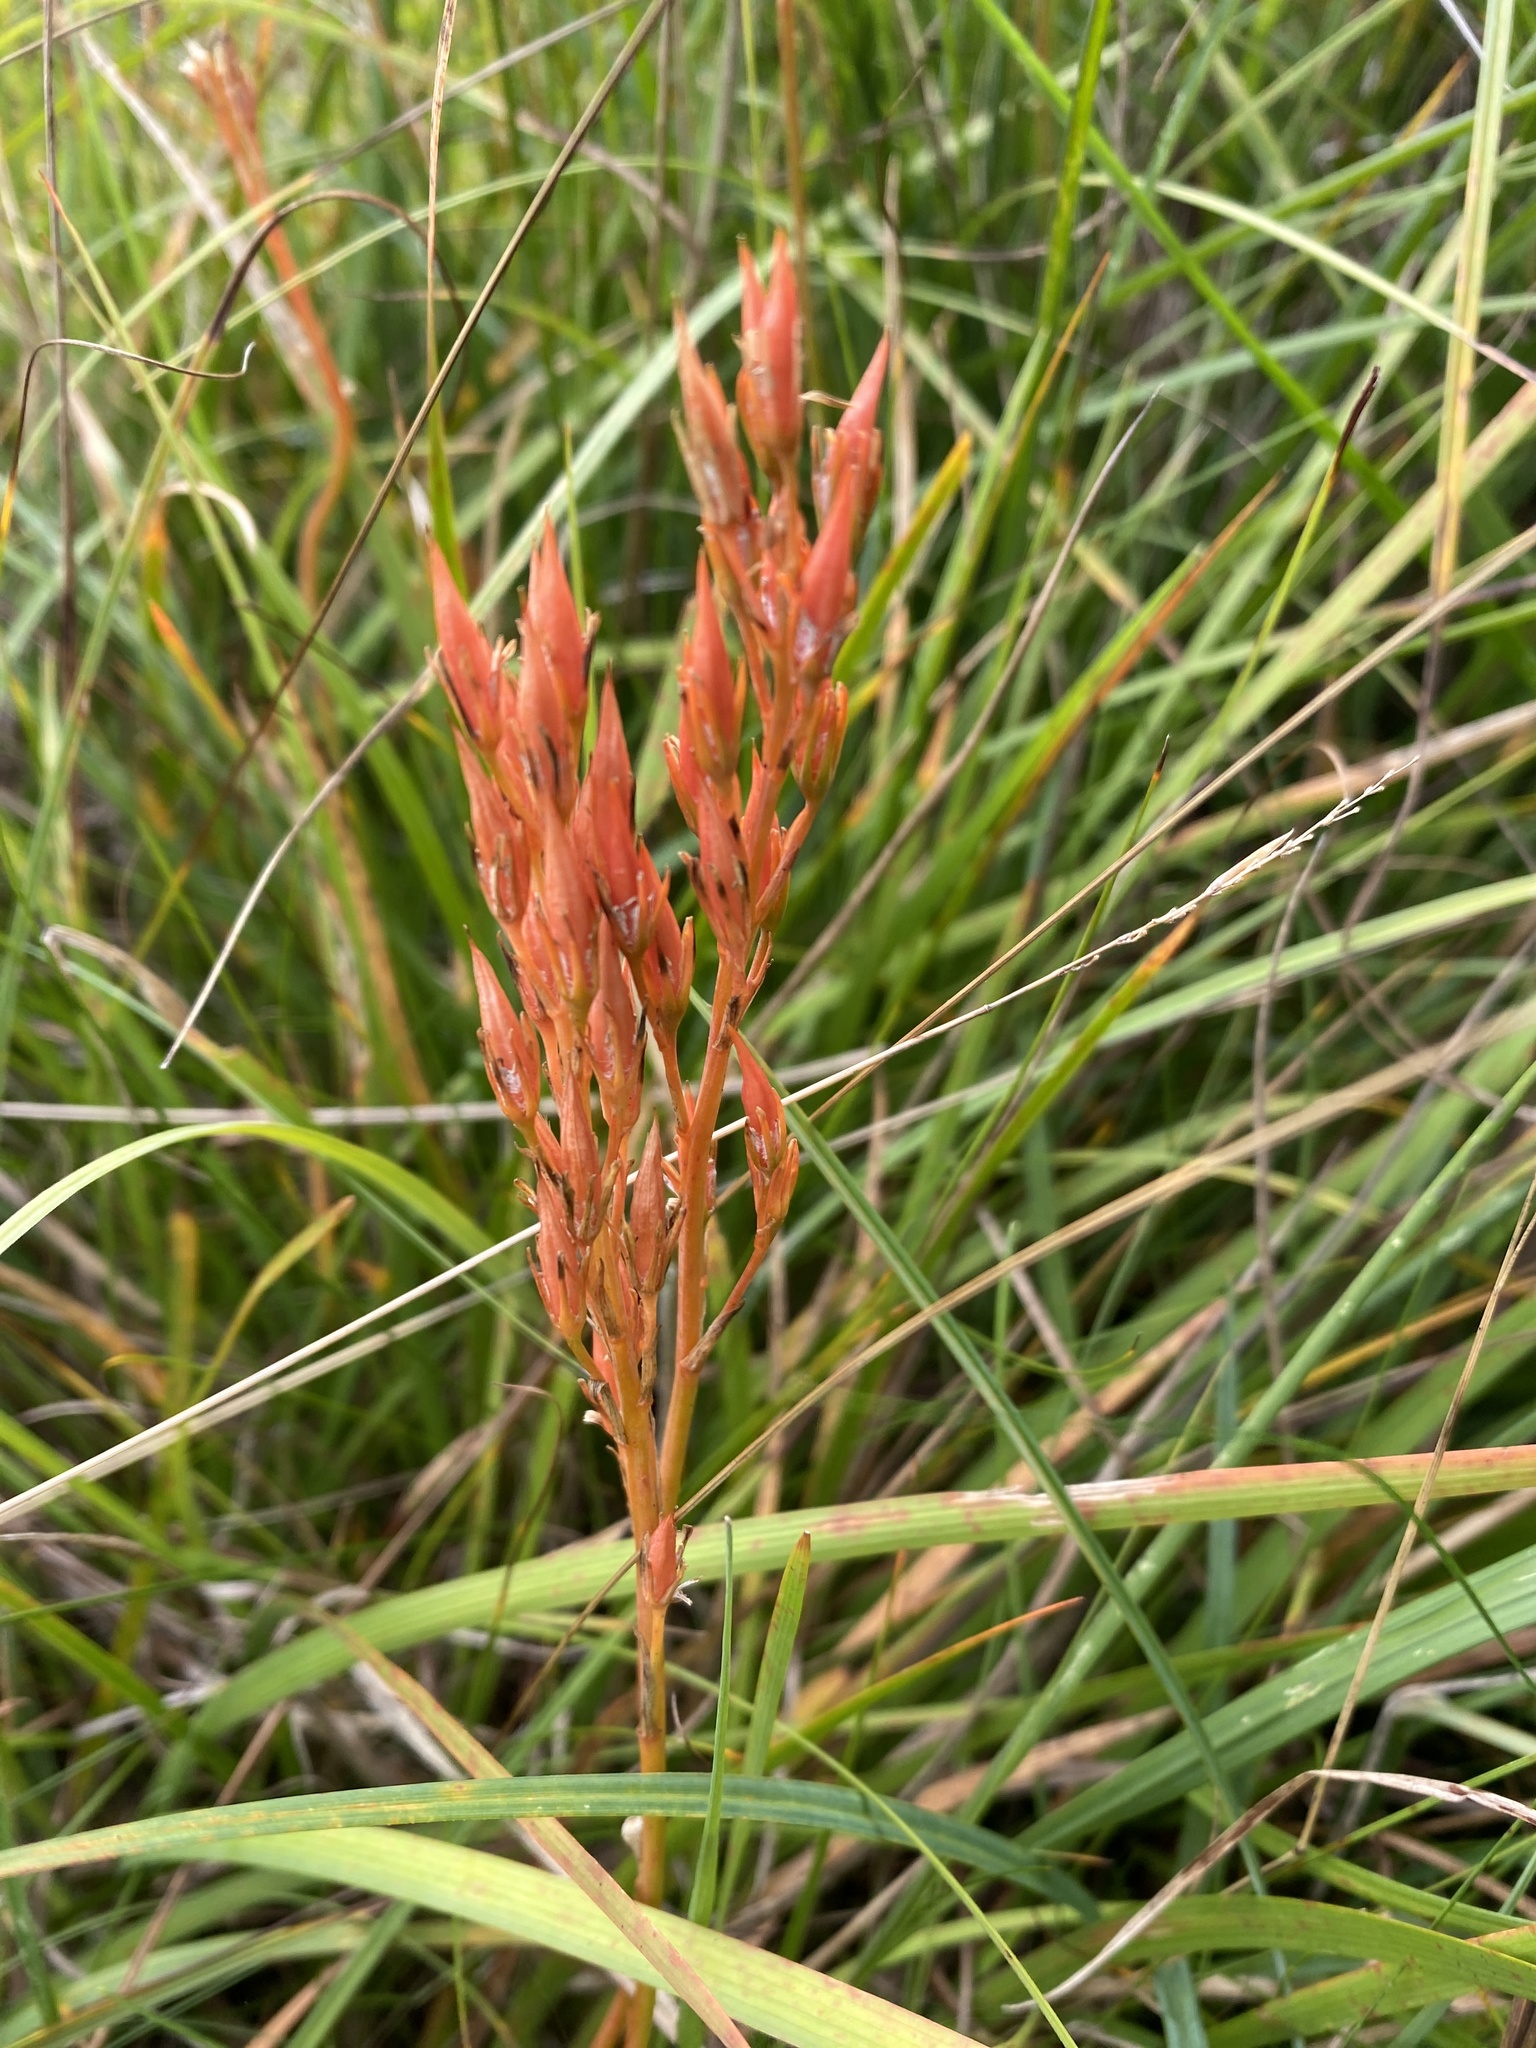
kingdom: Plantae
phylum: Tracheophyta
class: Liliopsida
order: Dioscoreales
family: Nartheciaceae
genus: Narthecium
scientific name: Narthecium ossifragum
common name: Bog asphodel
